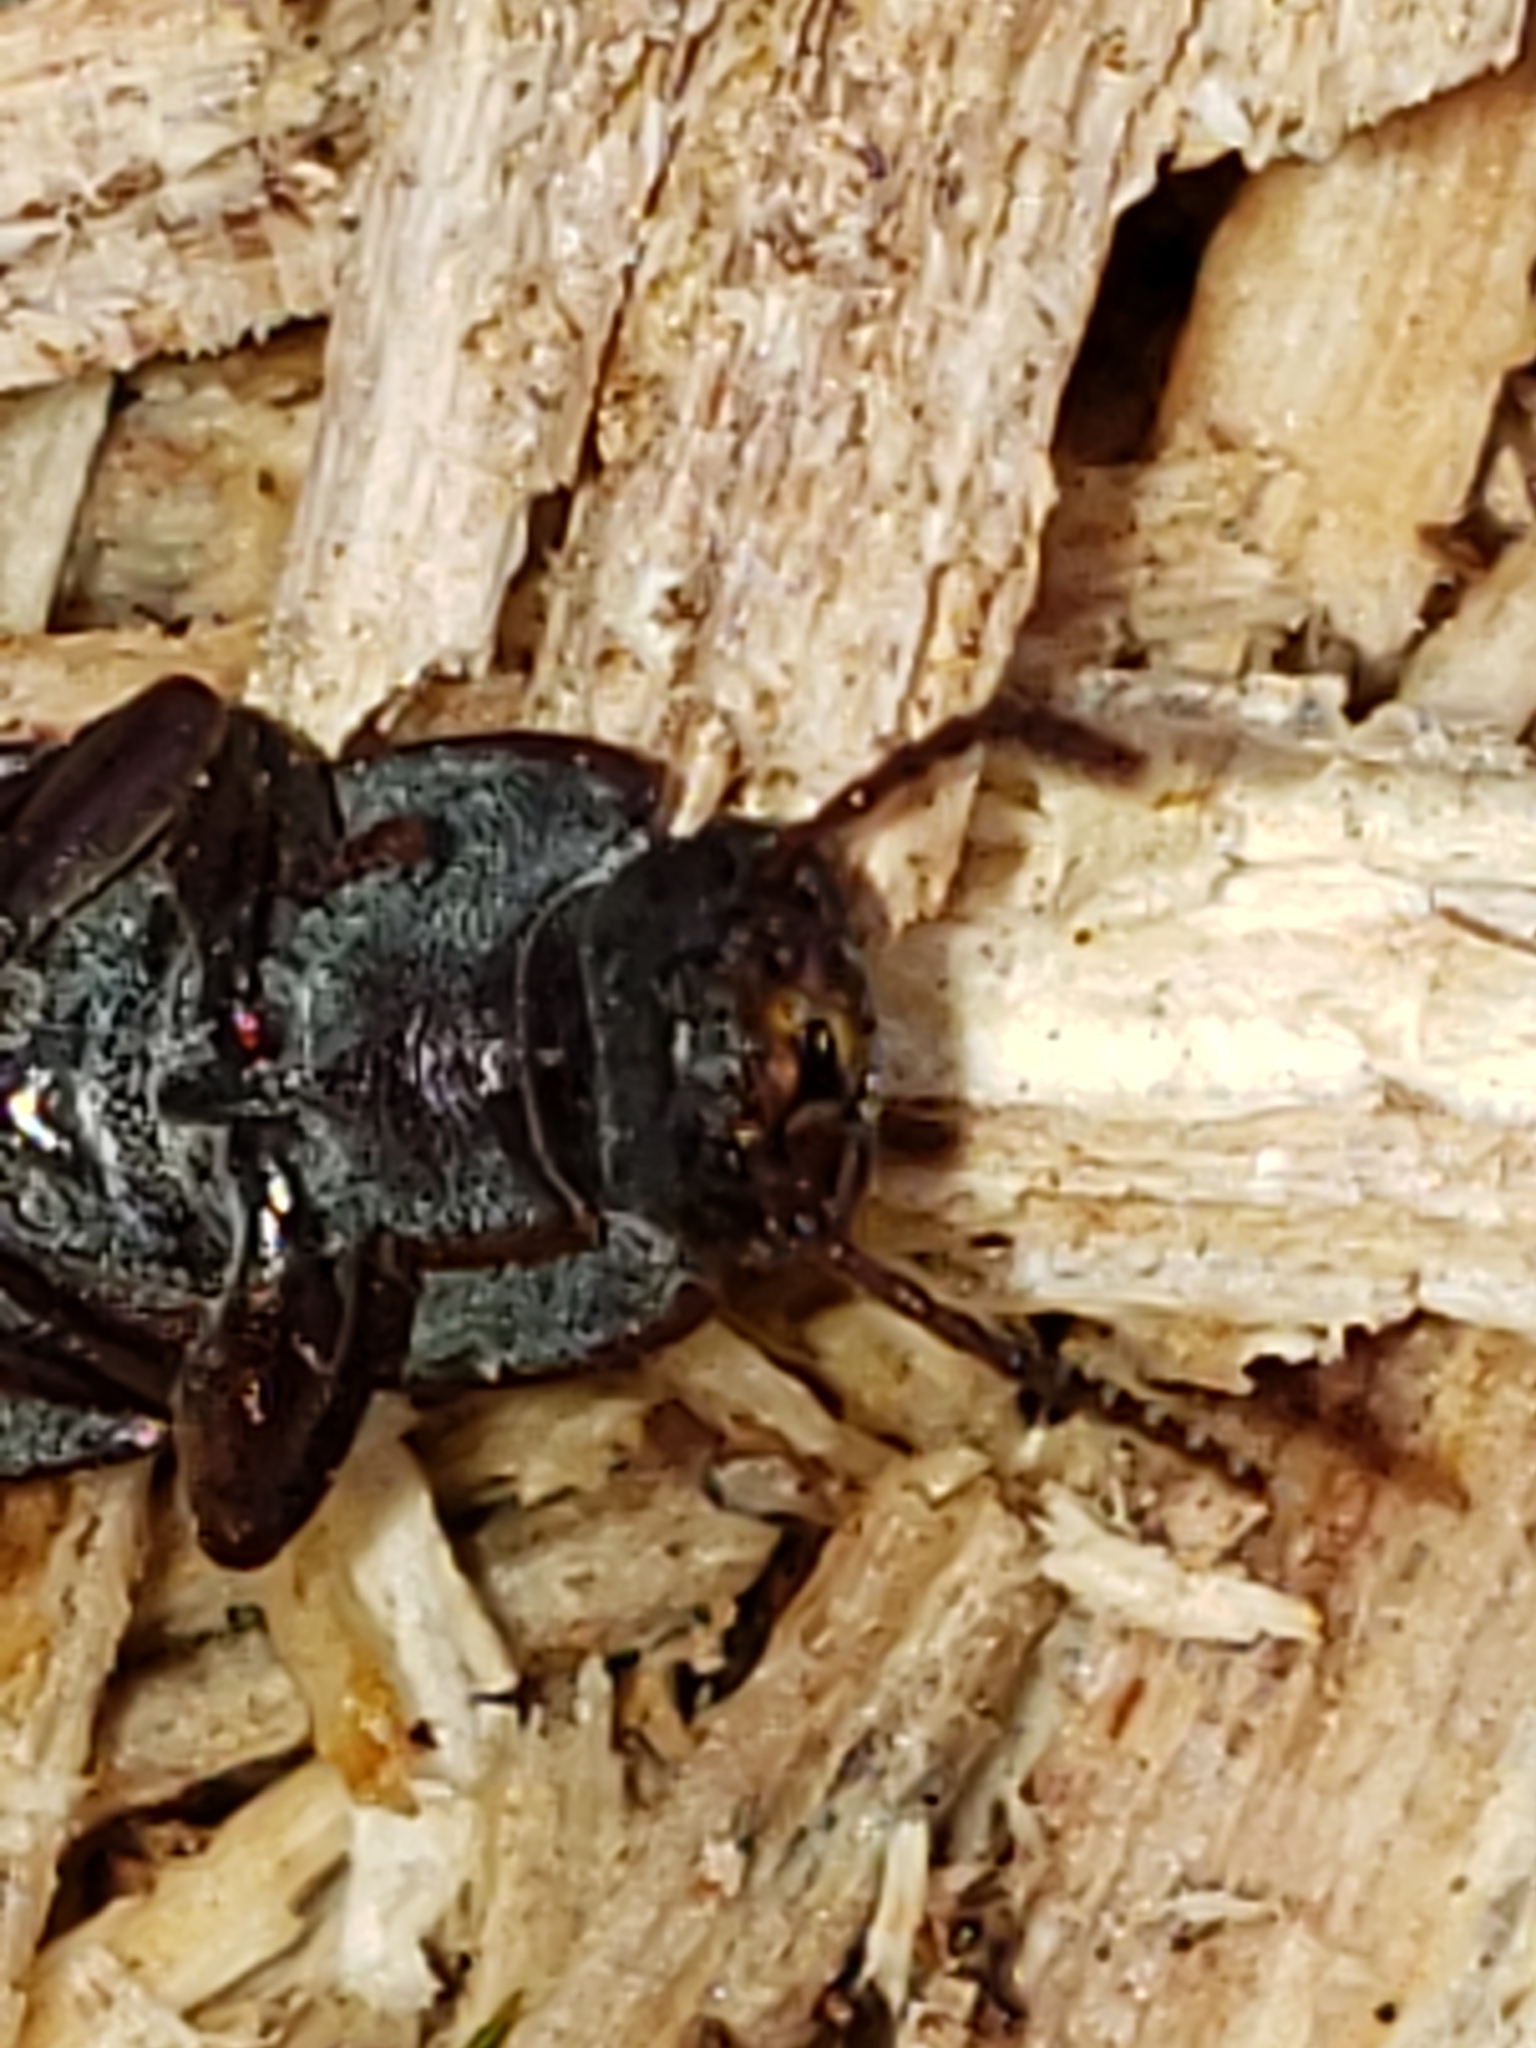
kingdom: Animalia
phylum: Arthropoda
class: Insecta
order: Coleoptera
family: Tenebrionidae
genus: Idiobates
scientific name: Idiobates castaneus
